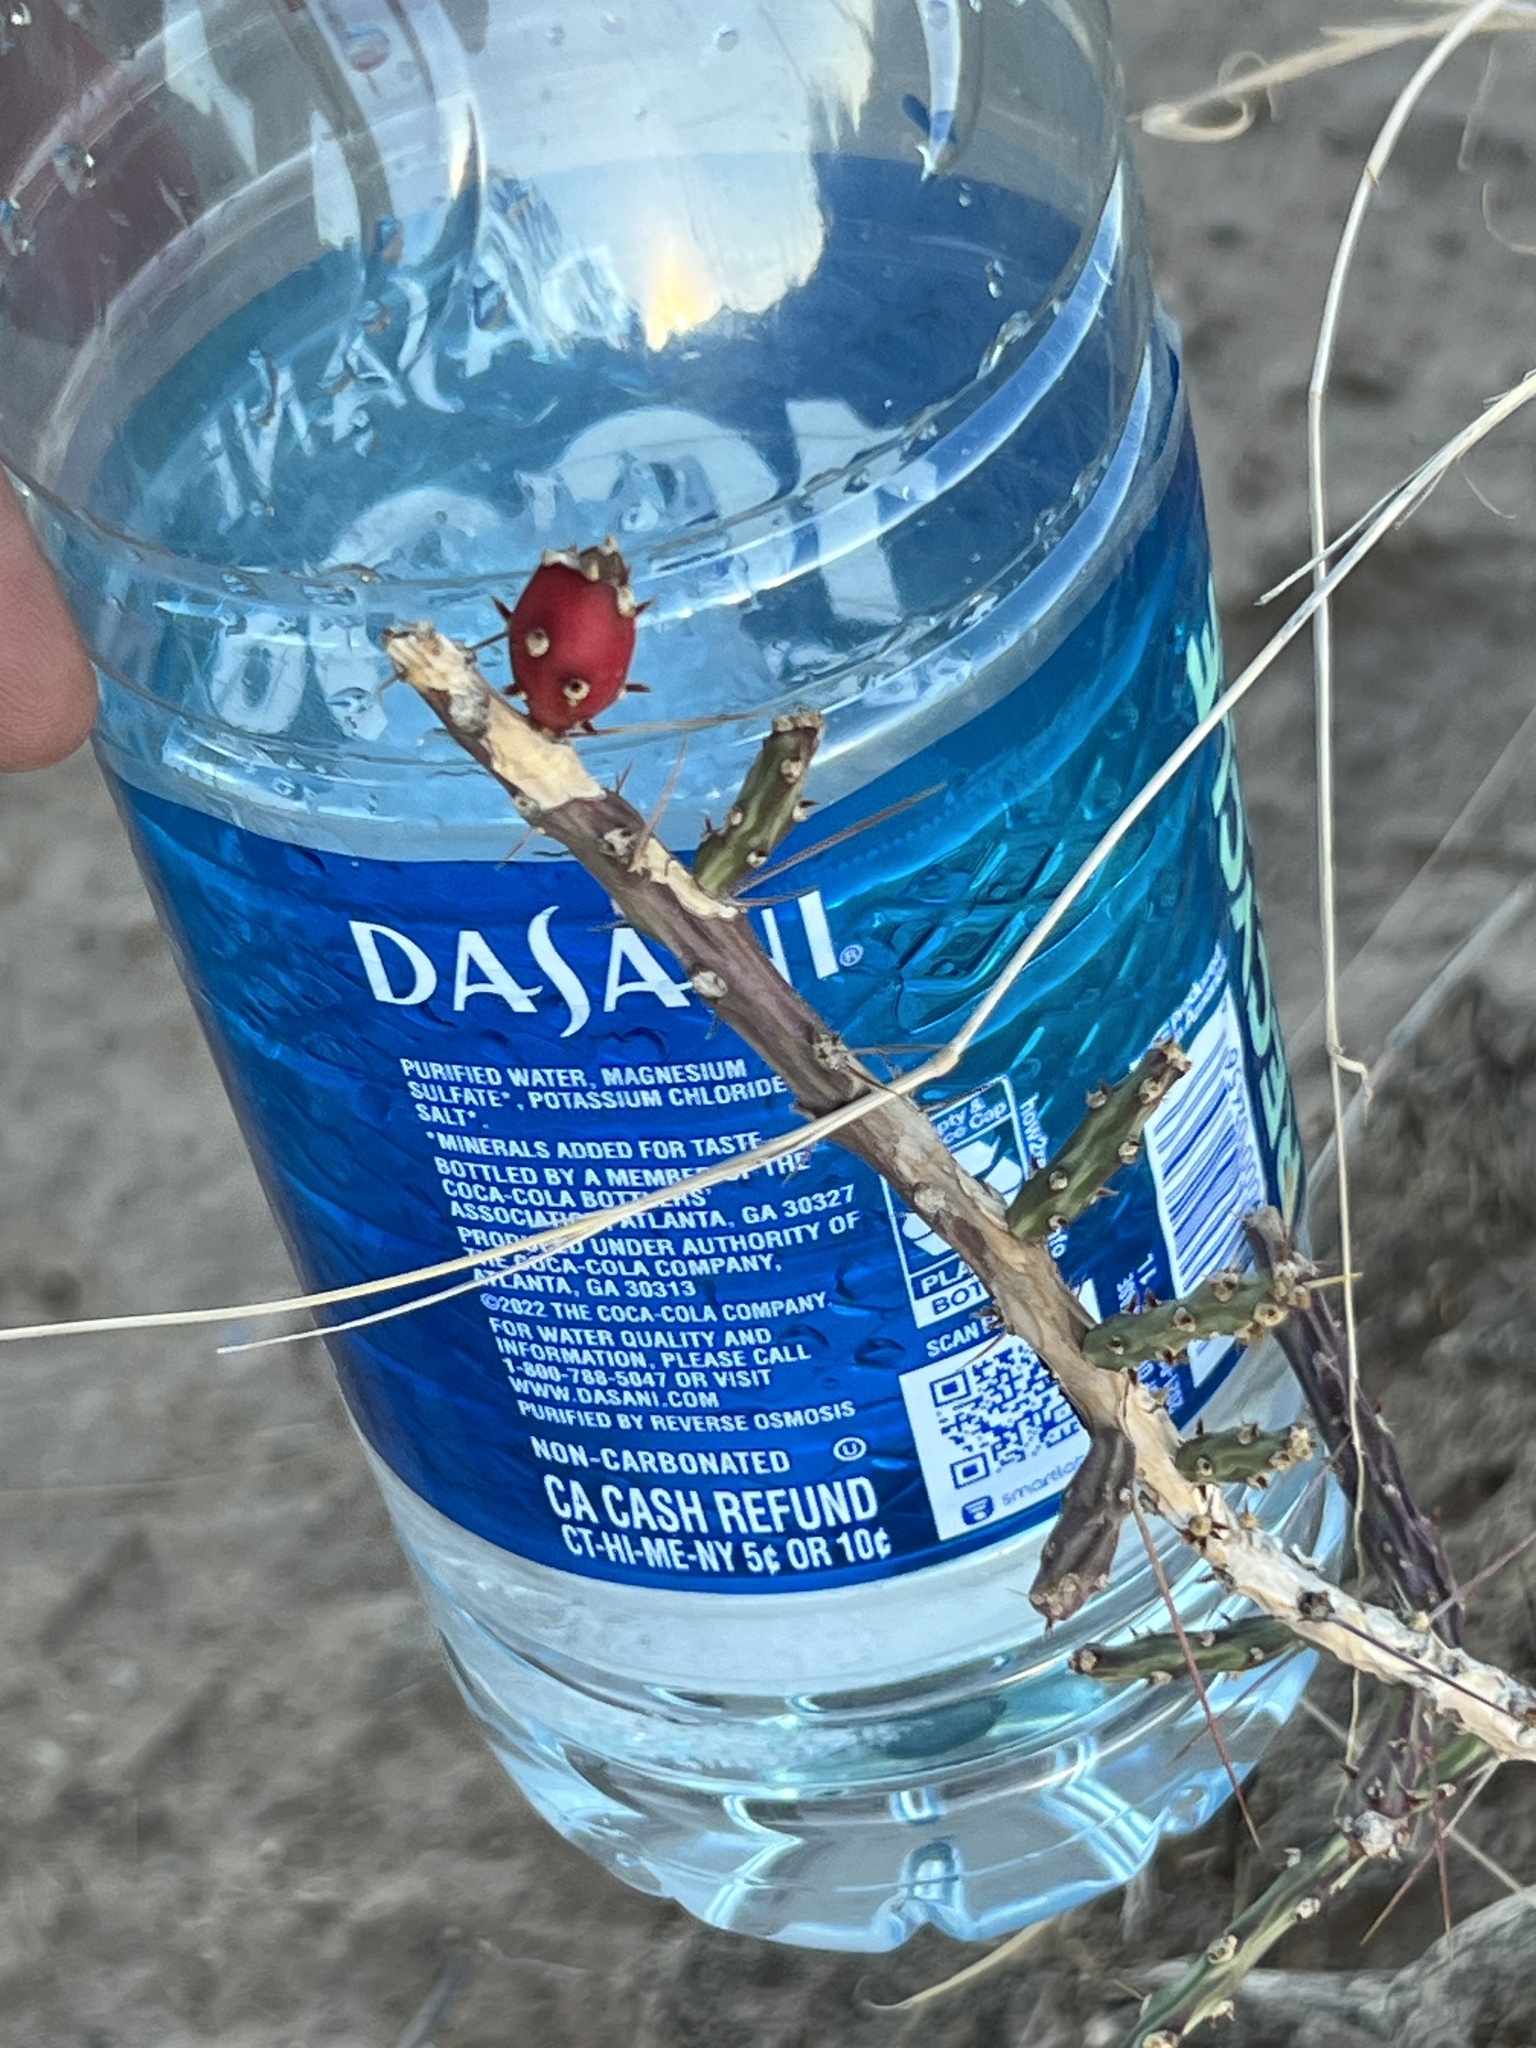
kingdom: Plantae
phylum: Tracheophyta
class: Magnoliopsida
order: Caryophyllales
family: Cactaceae
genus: Cylindropuntia
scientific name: Cylindropuntia leptocaulis
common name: Christmas cactus
